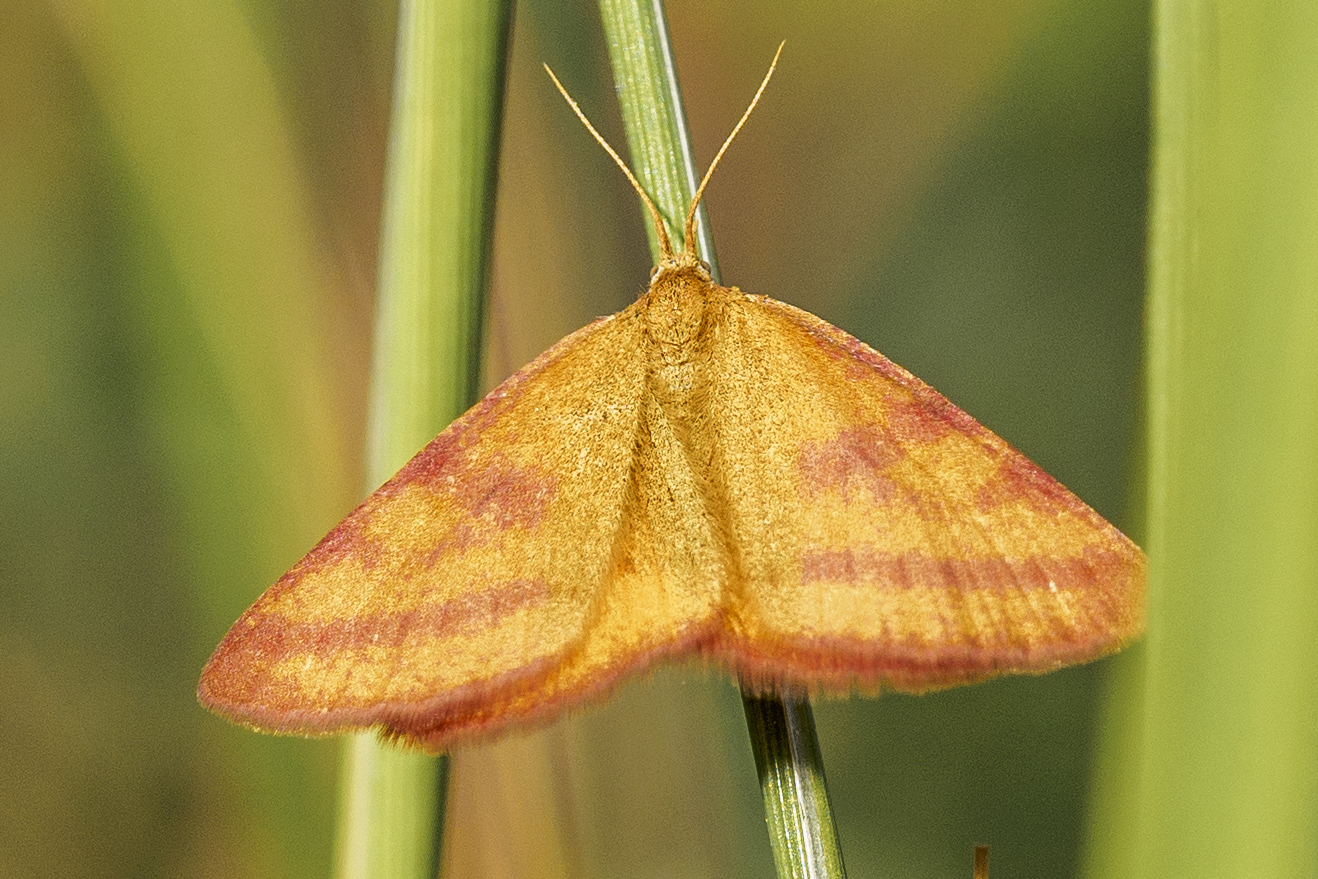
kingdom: Animalia
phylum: Arthropoda
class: Insecta
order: Lepidoptera
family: Geometridae
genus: Lythria
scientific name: Lythria purpuraria
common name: Purple-barred yellow
